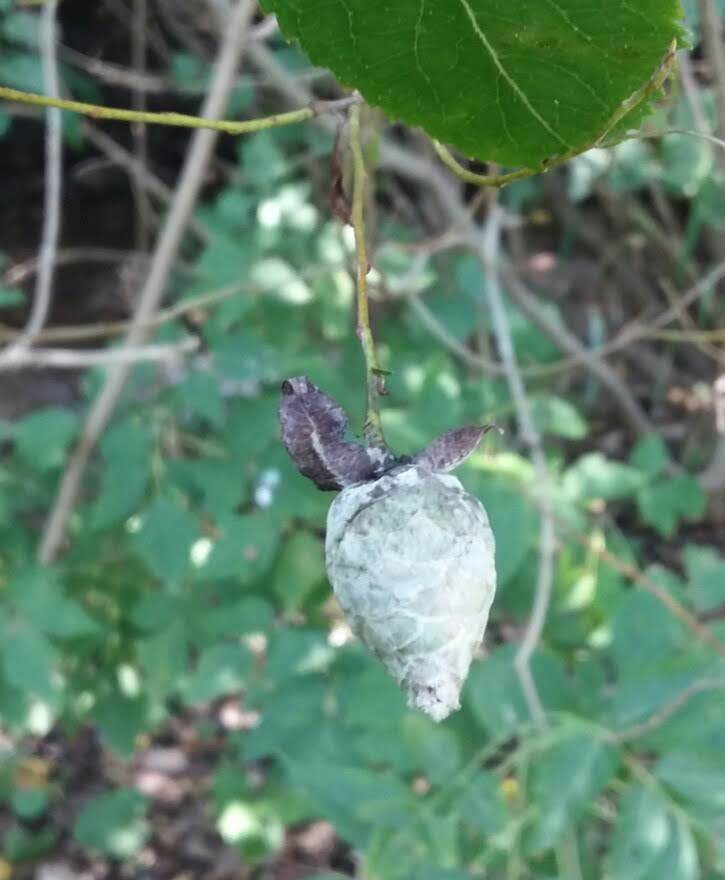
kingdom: Animalia
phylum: Arthropoda
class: Insecta
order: Diptera
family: Cecidomyiidae
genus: Rabdophaga
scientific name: Rabdophaga strobiloides
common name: Willow pinecone gall midge
